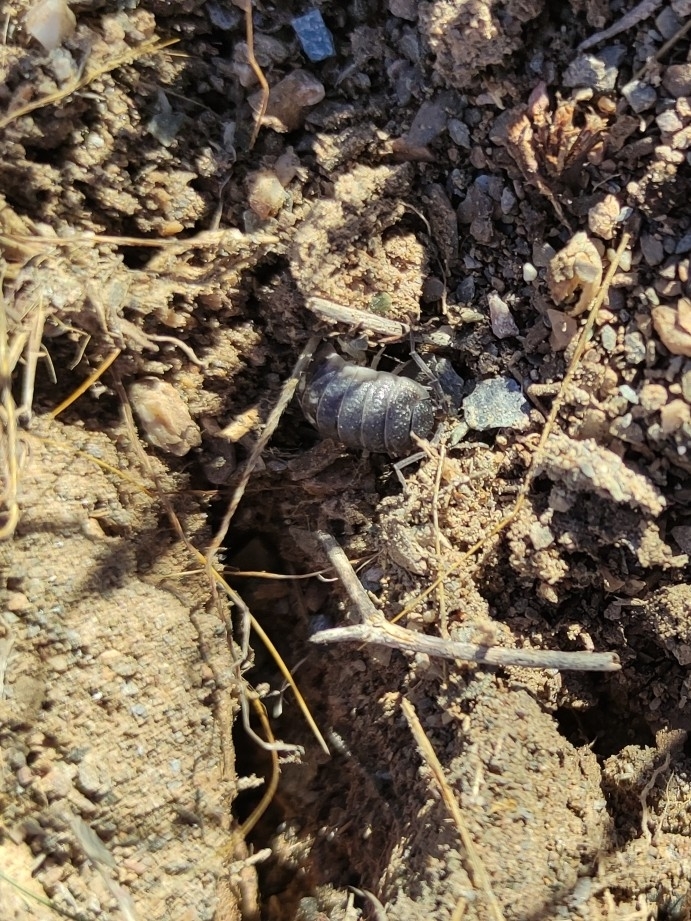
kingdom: Animalia
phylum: Arthropoda
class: Malacostraca
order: Isopoda
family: Porcellionidae
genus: Porcellio
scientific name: Porcellio ornatus
